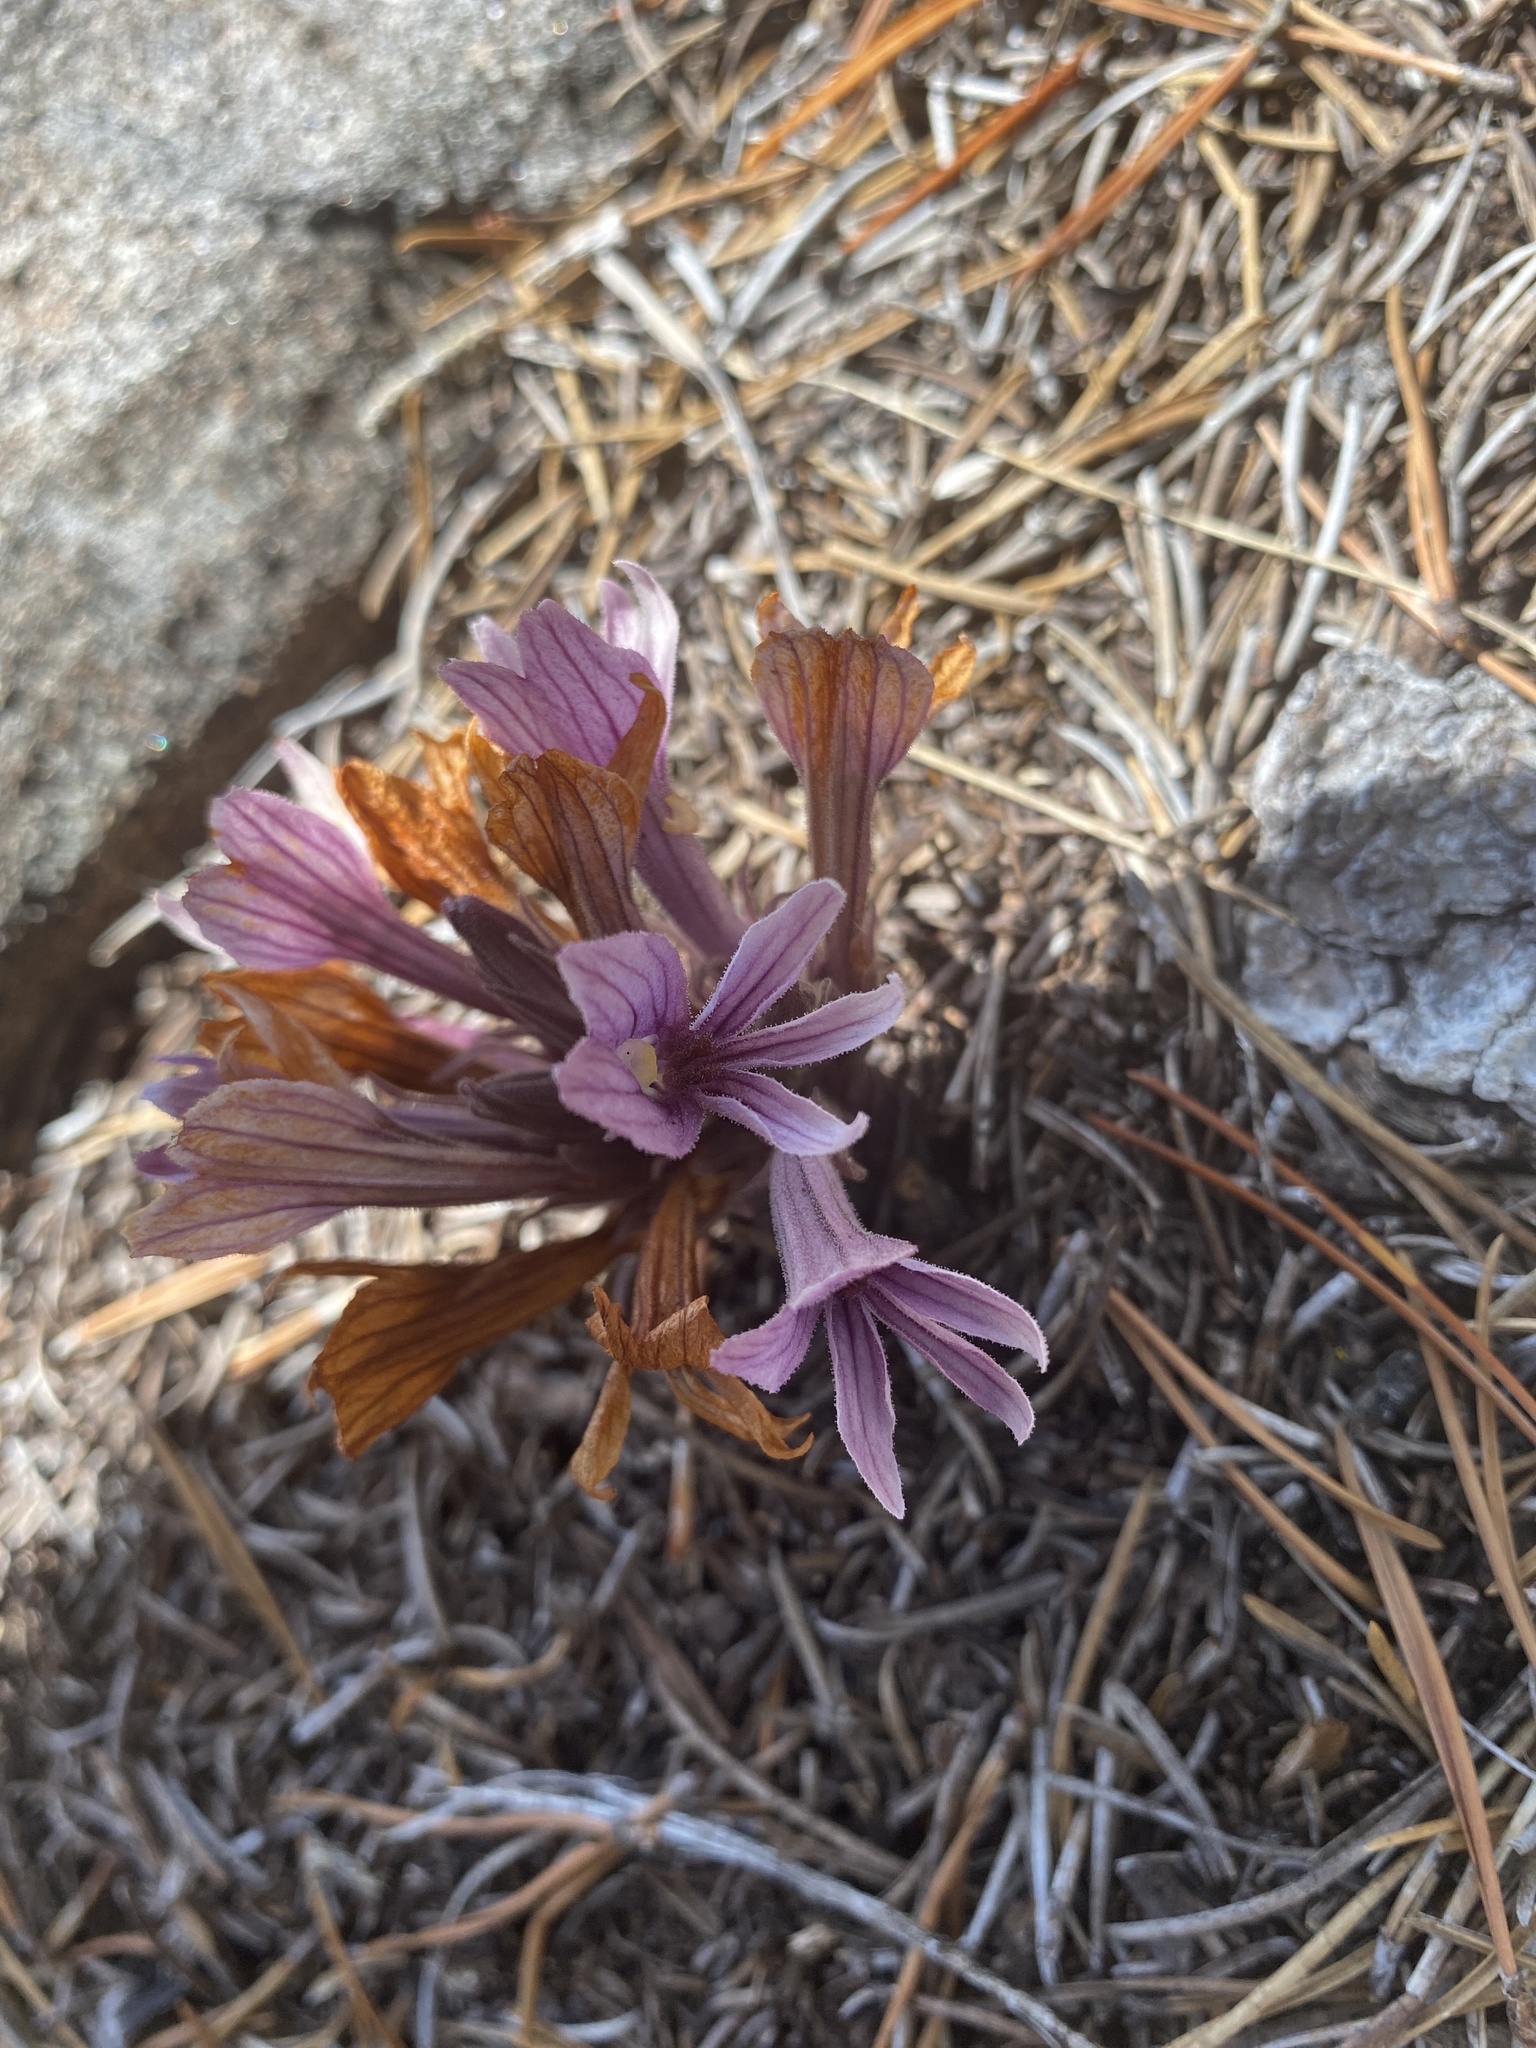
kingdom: Plantae
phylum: Tracheophyta
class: Magnoliopsida
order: Lamiales
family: Orobanchaceae
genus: Aphyllon
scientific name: Aphyllon californicum
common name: California broomrape
